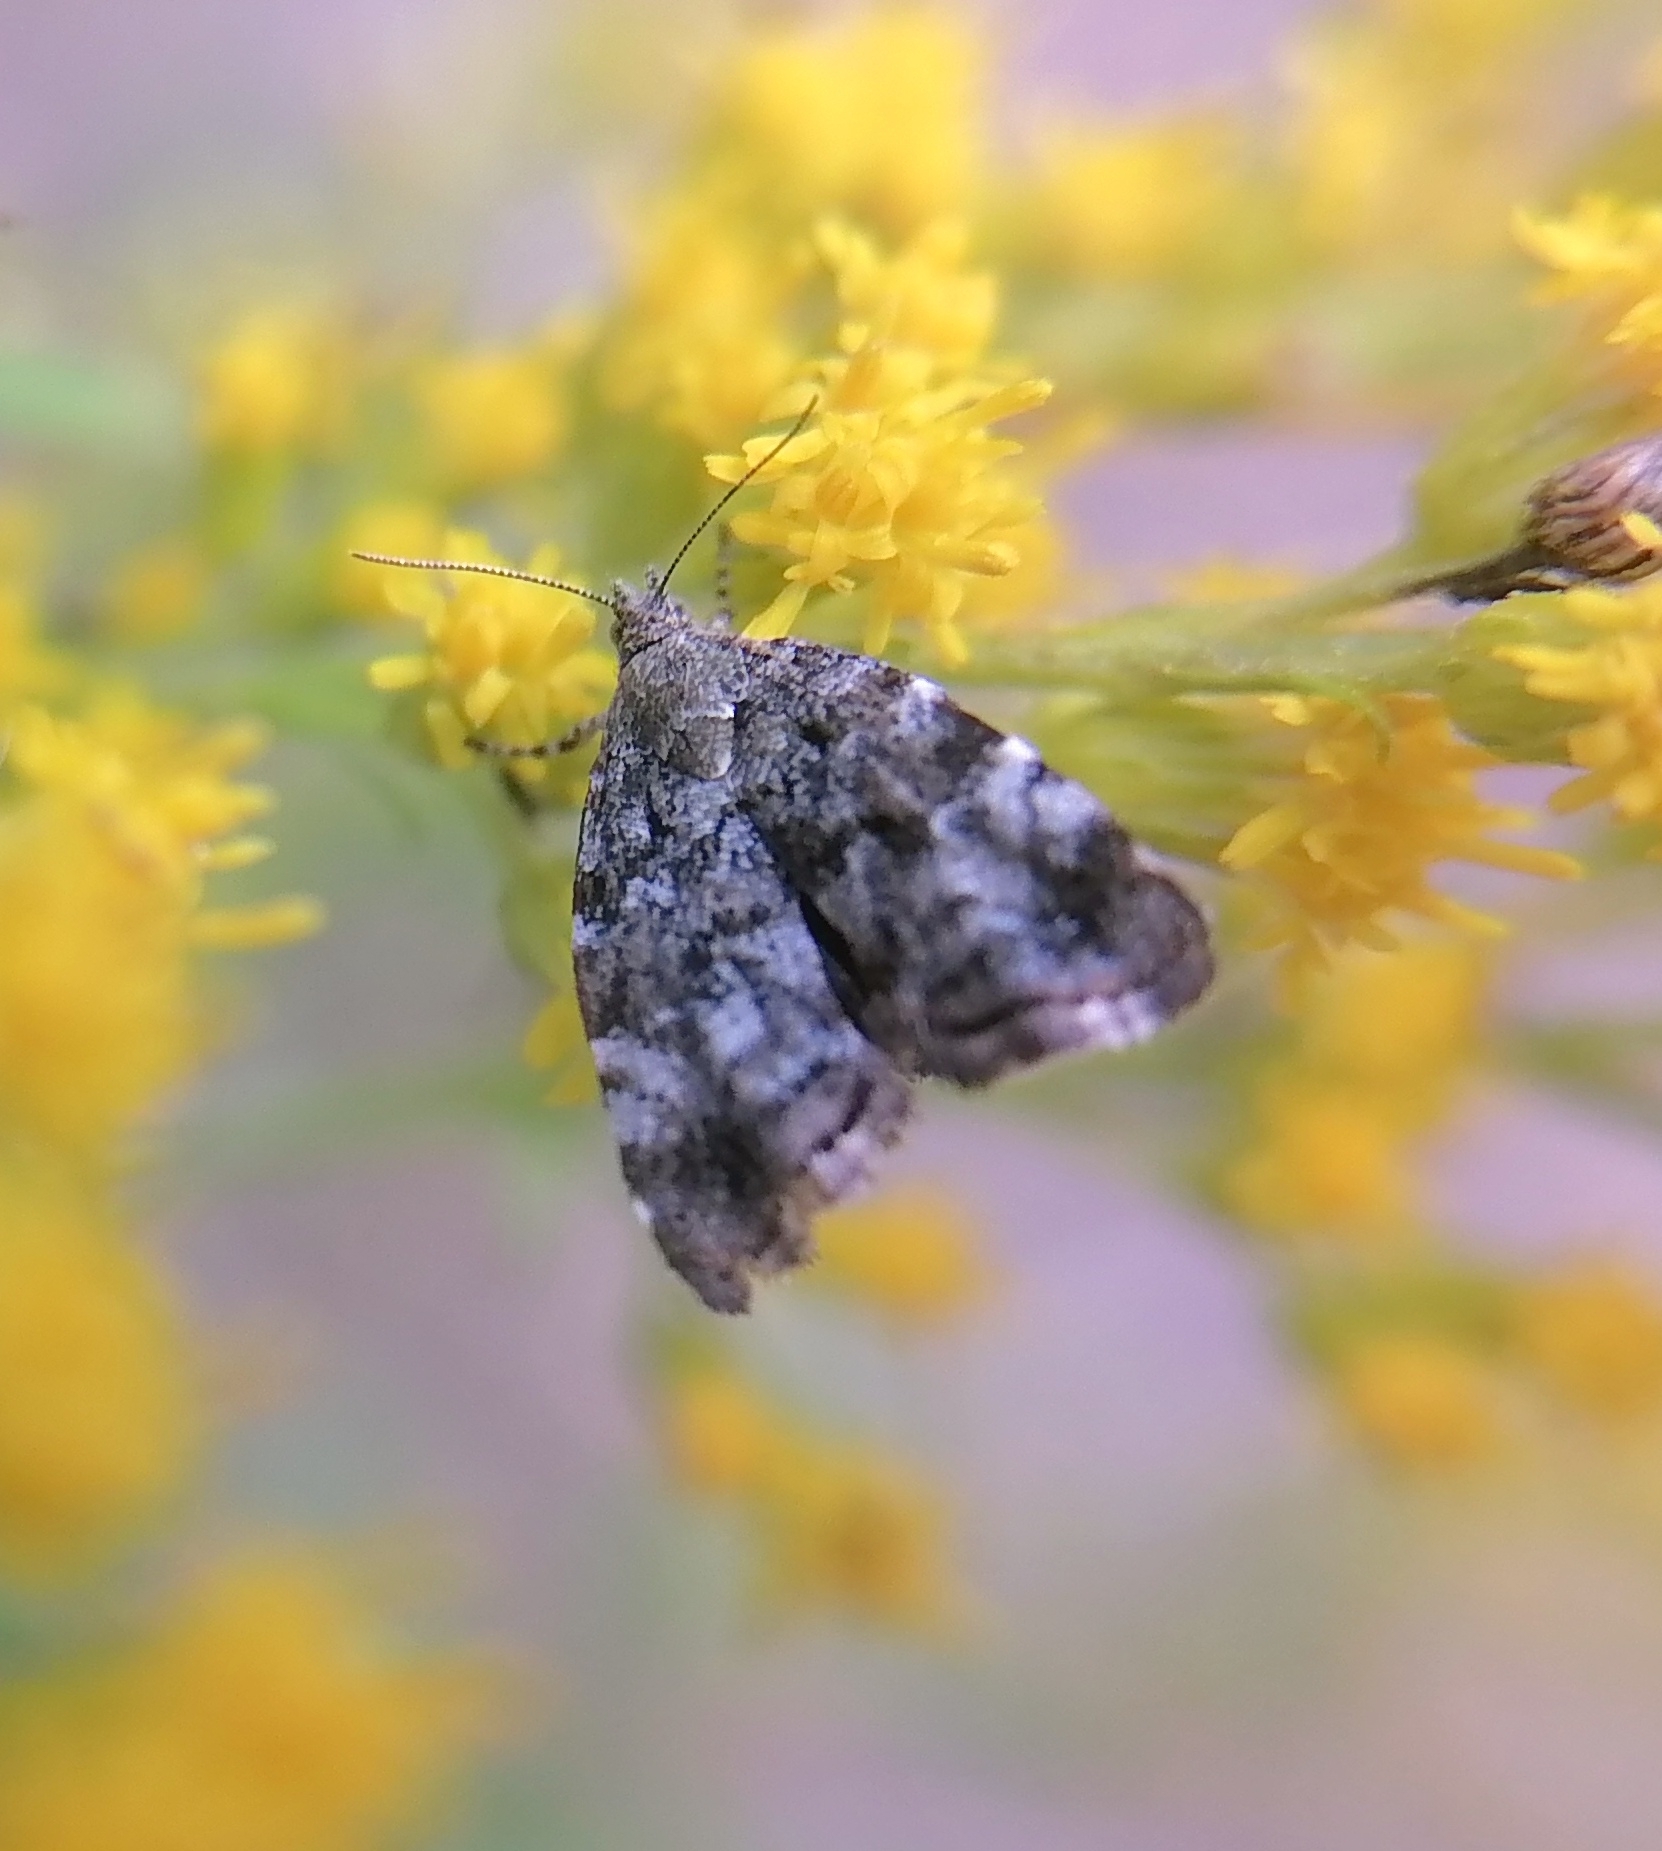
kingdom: Animalia
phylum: Arthropoda
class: Insecta
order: Lepidoptera
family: Choreutidae
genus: Choreutis
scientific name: Choreutis diana
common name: Inverness twitcher
